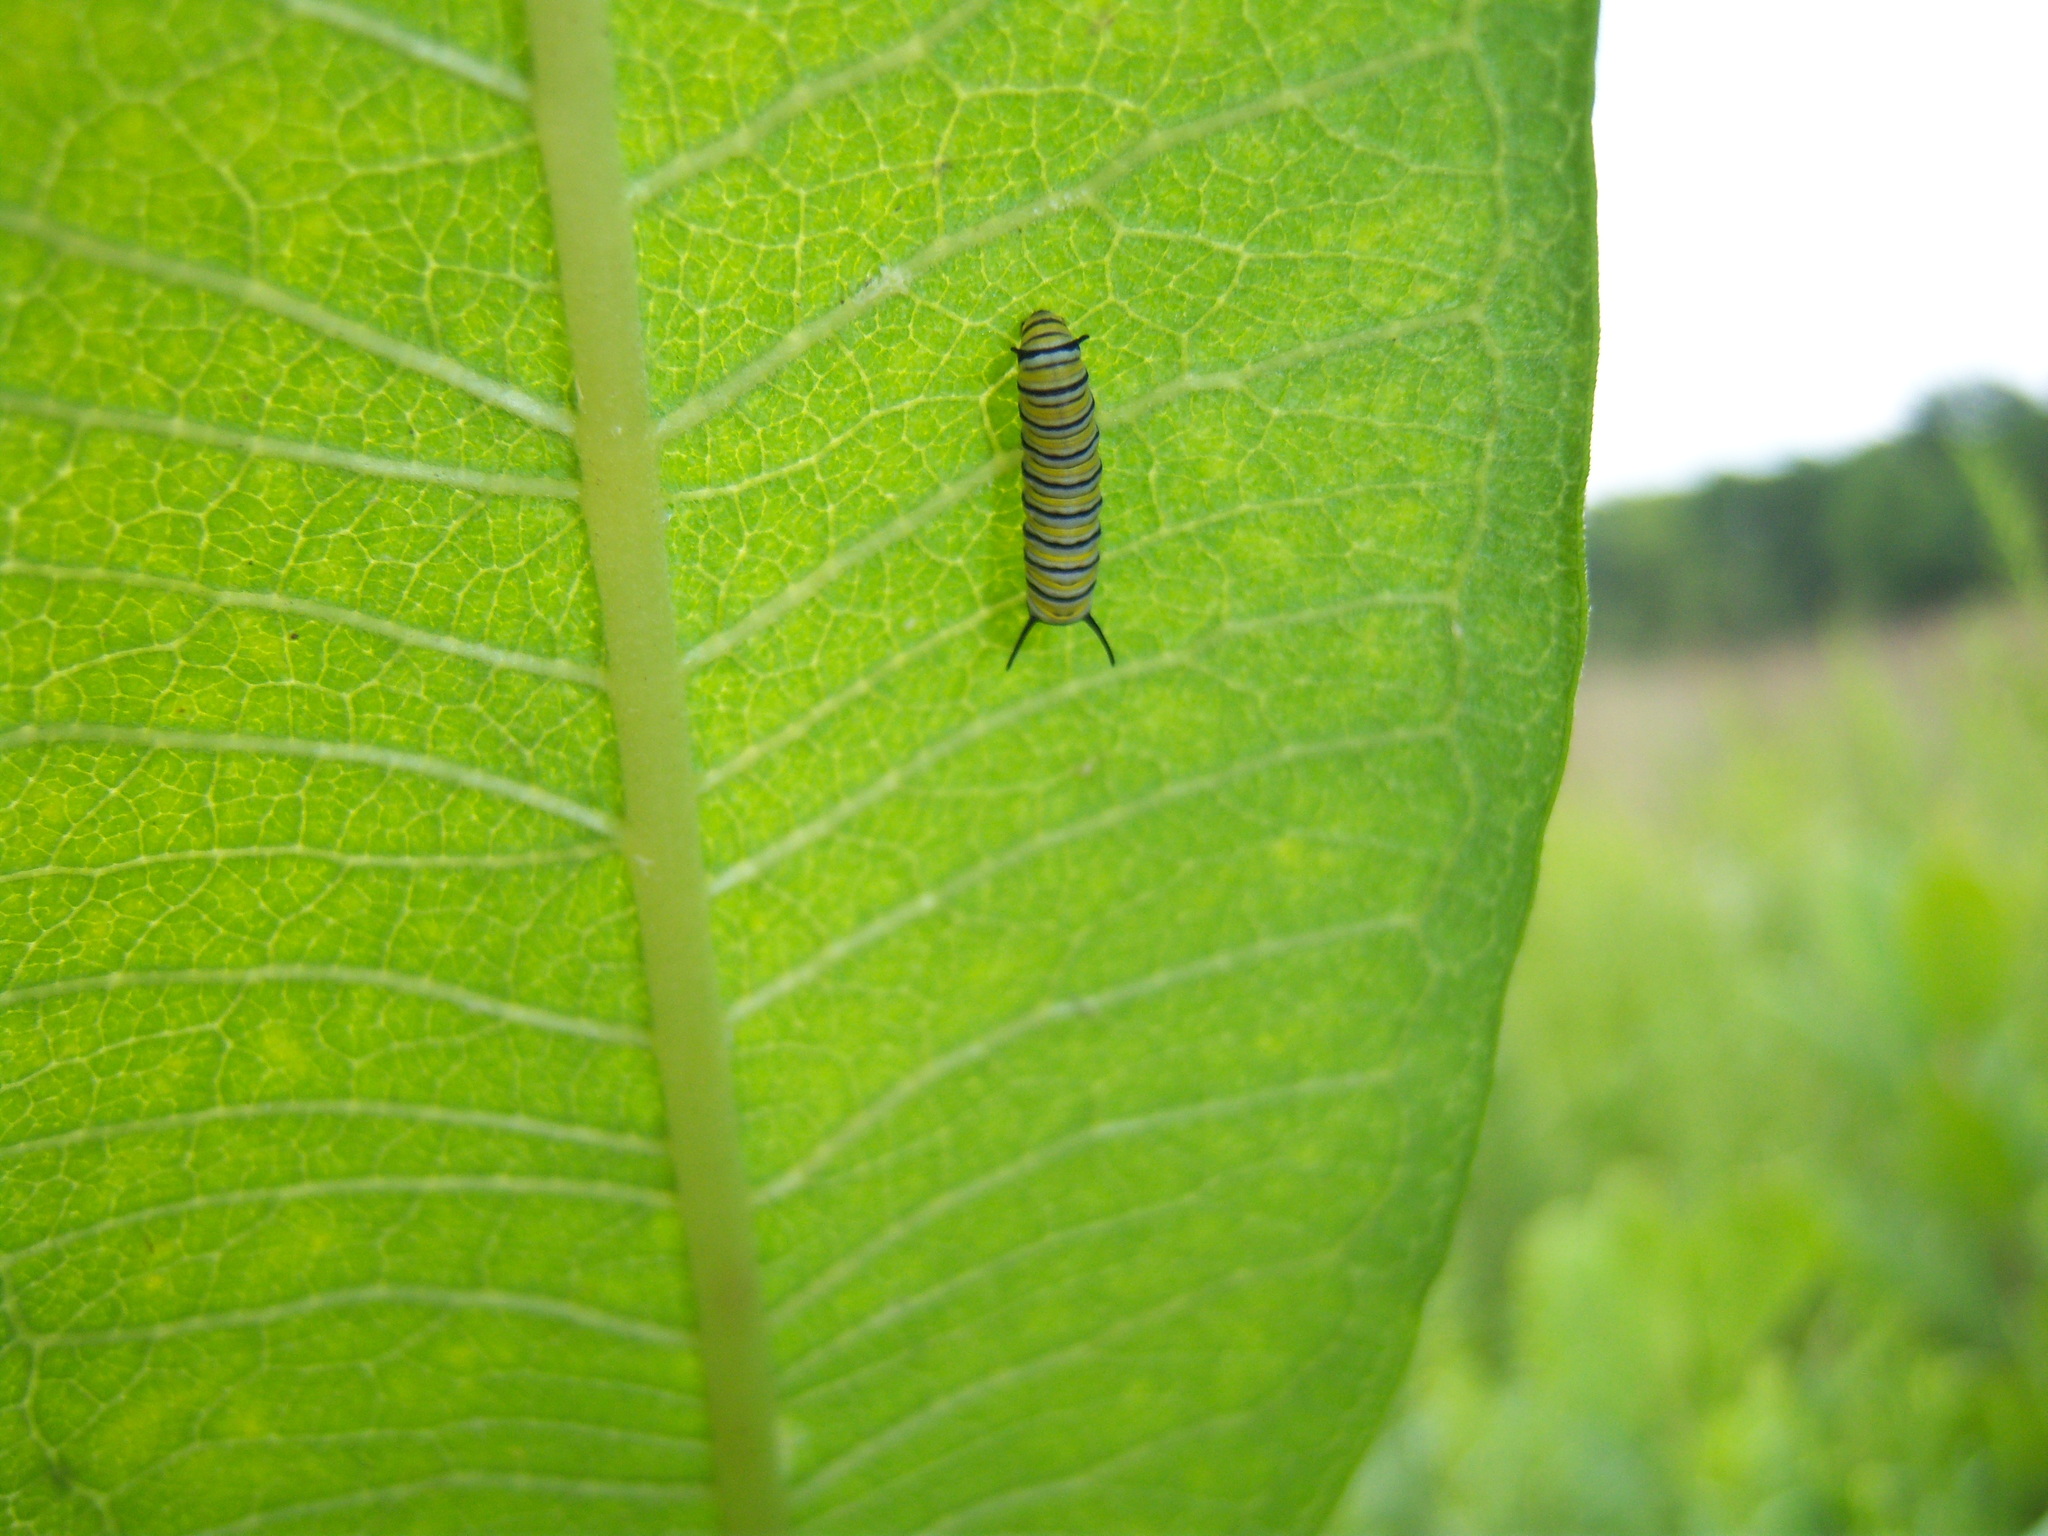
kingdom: Animalia
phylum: Arthropoda
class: Insecta
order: Lepidoptera
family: Nymphalidae
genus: Danaus
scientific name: Danaus plexippus
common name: Monarch
